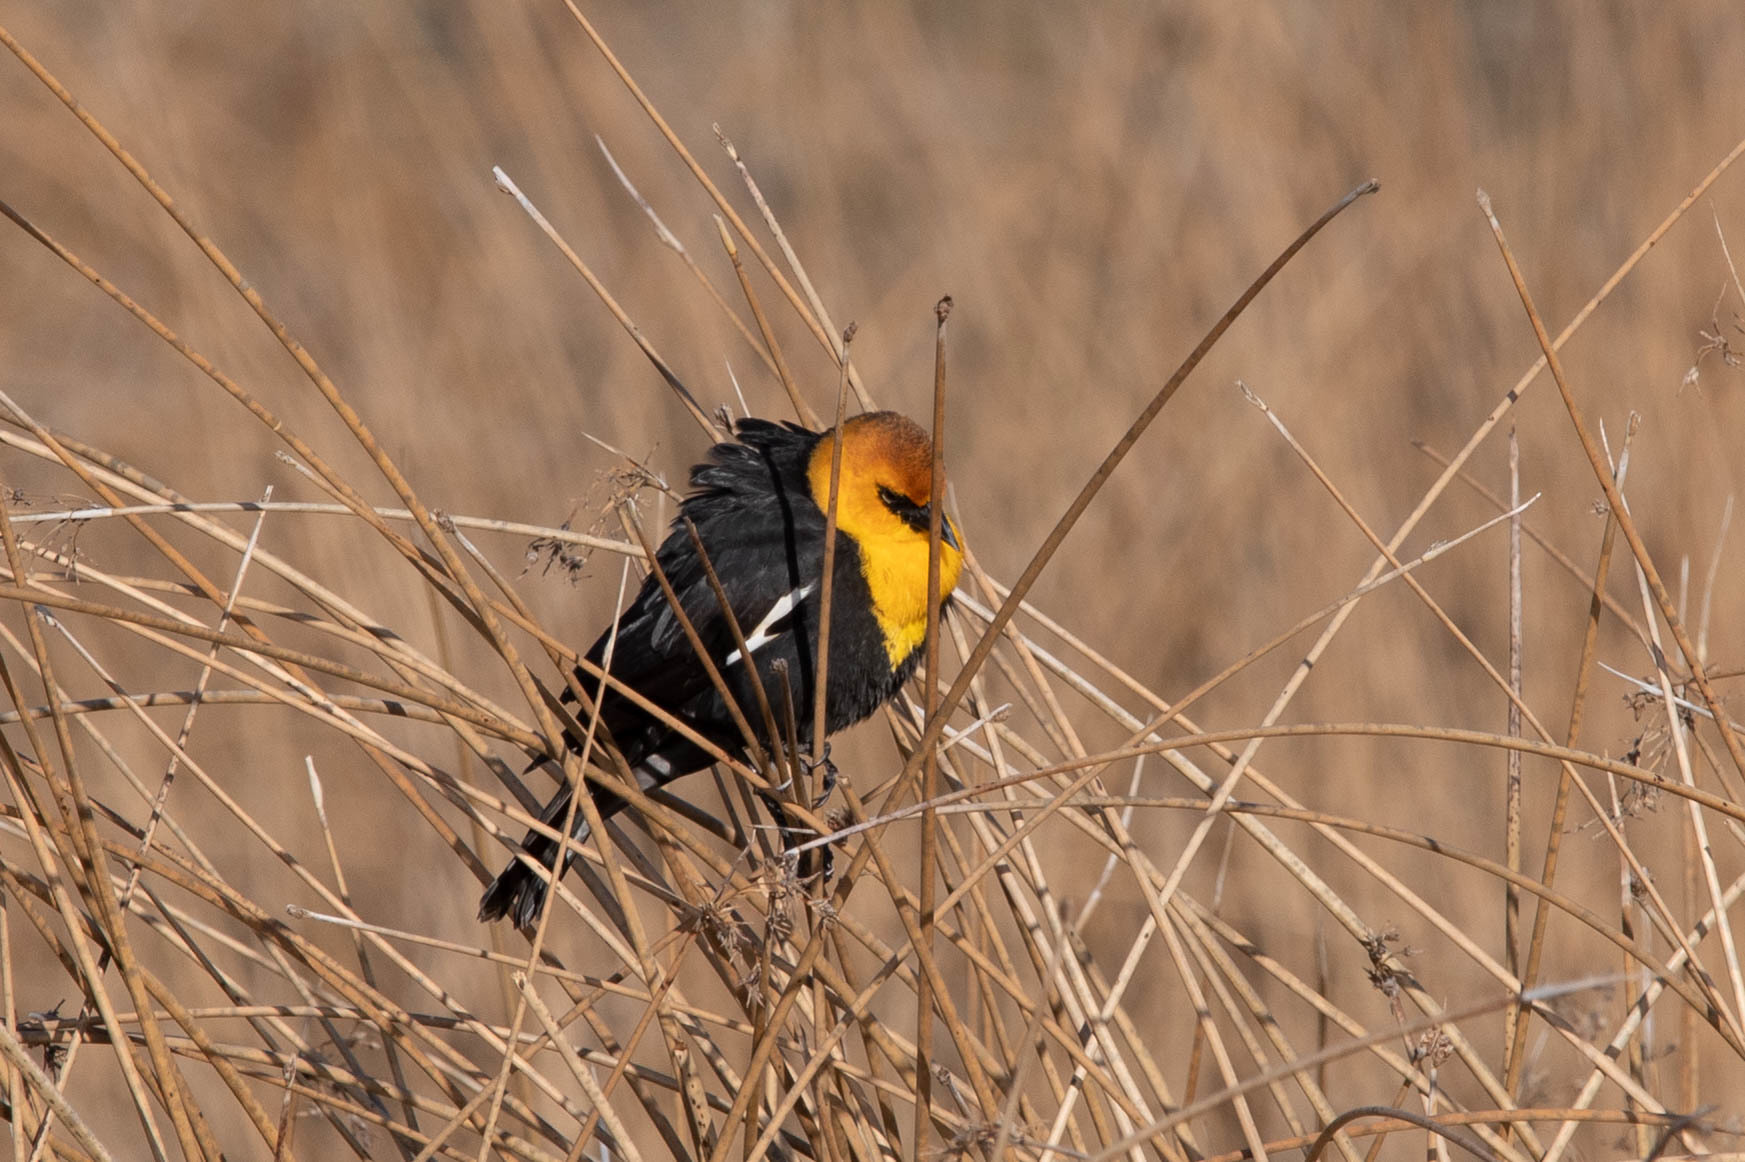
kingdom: Animalia
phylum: Chordata
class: Aves
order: Passeriformes
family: Icteridae
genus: Xanthocephalus
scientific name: Xanthocephalus xanthocephalus
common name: Yellow-headed blackbird
